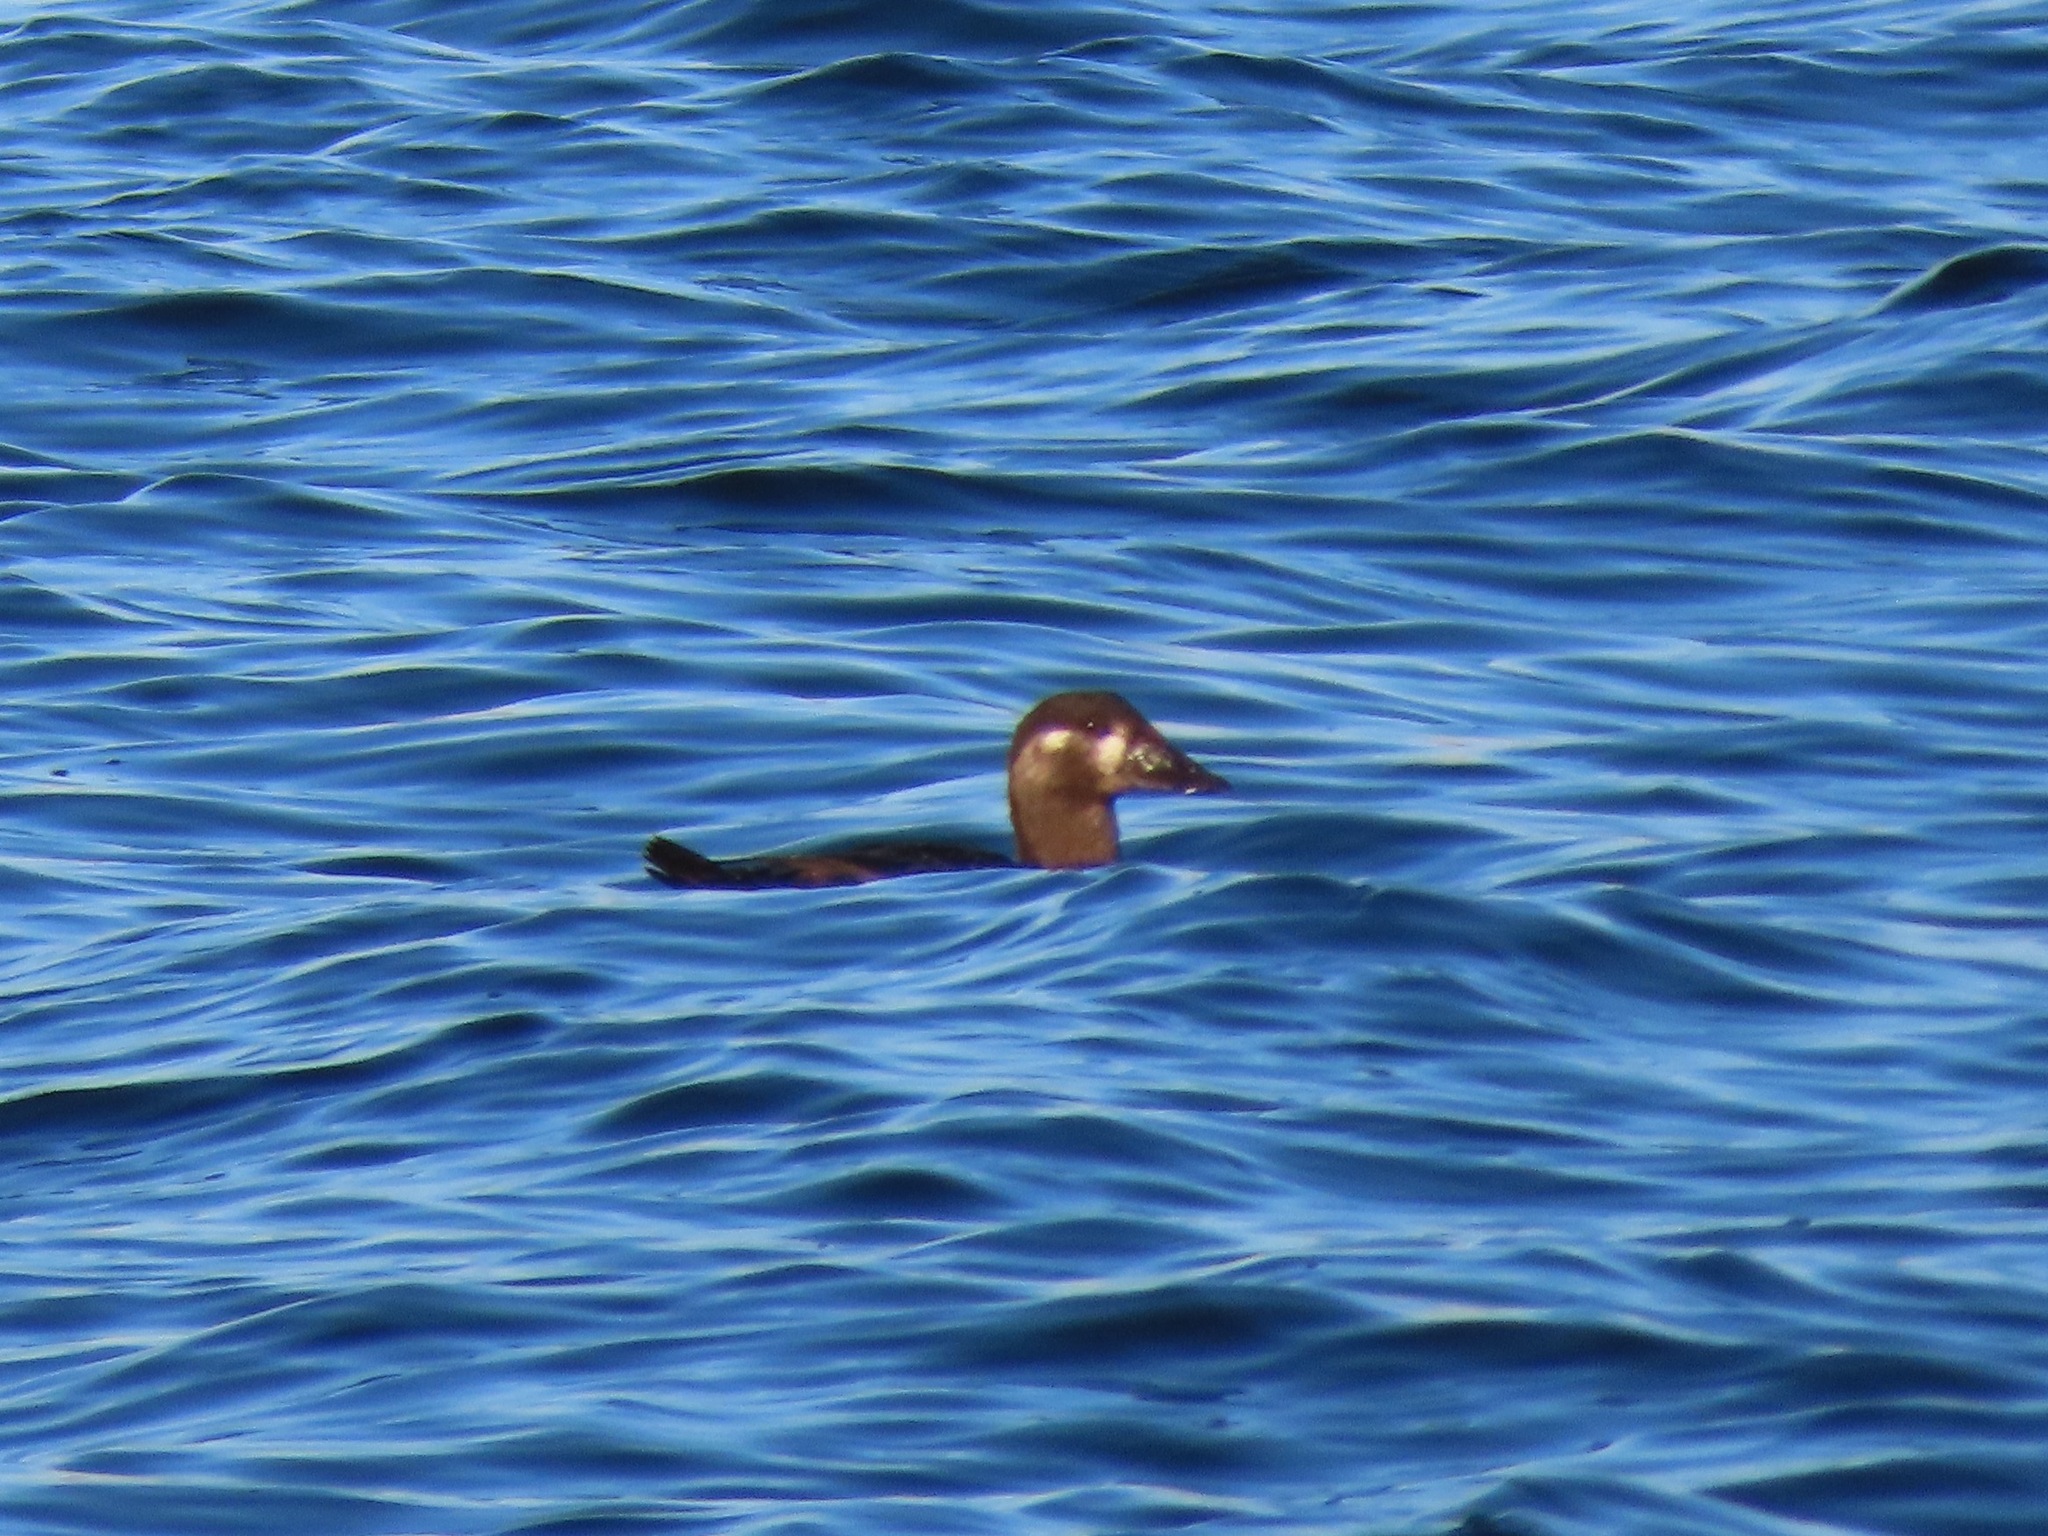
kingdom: Animalia
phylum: Chordata
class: Aves
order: Anseriformes
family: Anatidae
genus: Melanitta
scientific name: Melanitta perspicillata
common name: Surf scoter
